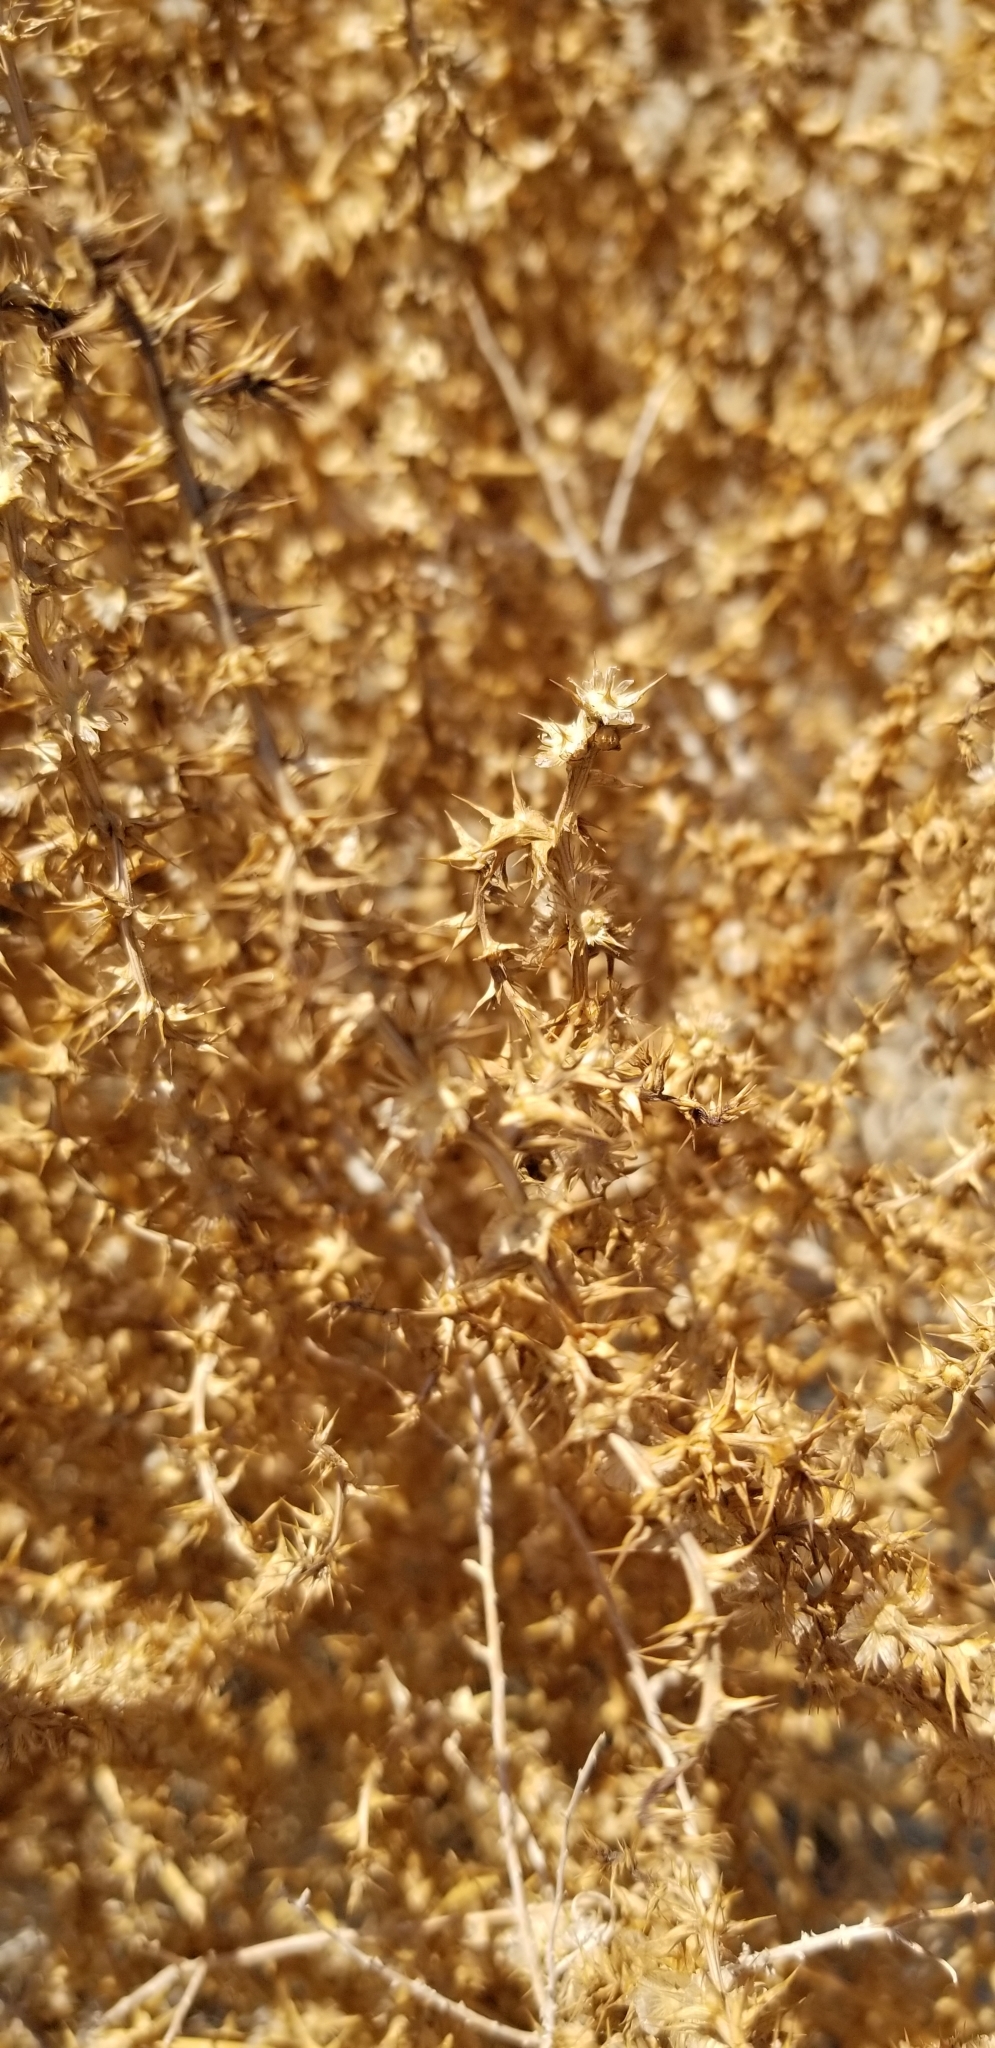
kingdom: Plantae
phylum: Tracheophyta
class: Magnoliopsida
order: Caryophyllales
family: Amaranthaceae
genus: Salsola
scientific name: Salsola tragus
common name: Prickly russian thistle
